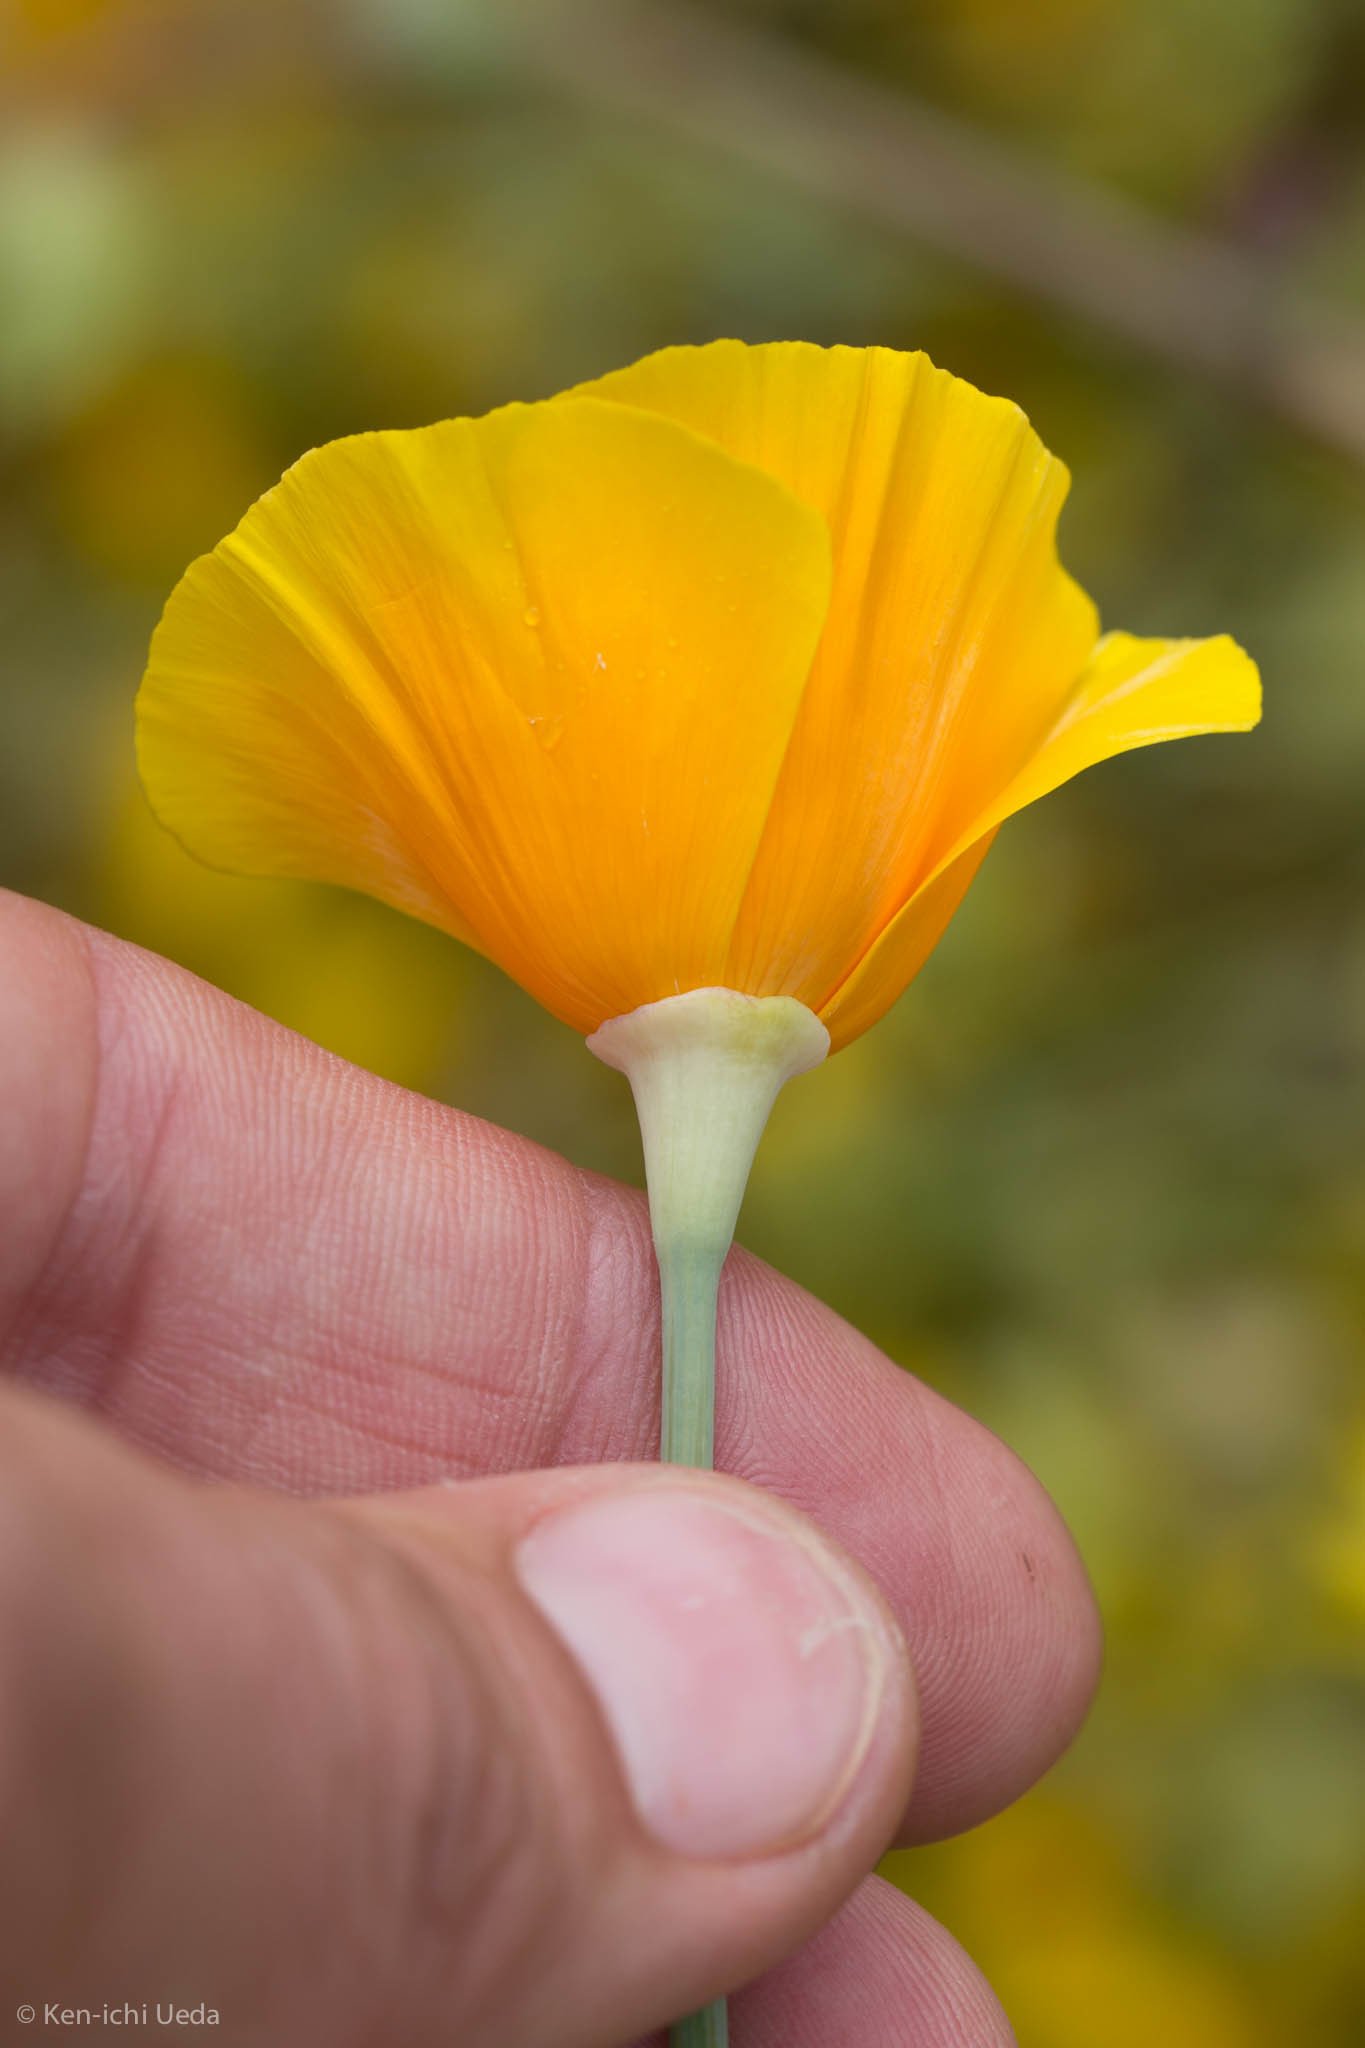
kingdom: Plantae
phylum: Tracheophyta
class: Magnoliopsida
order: Ranunculales
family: Papaveraceae
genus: Eschscholzia
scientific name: Eschscholzia californica
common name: California poppy
